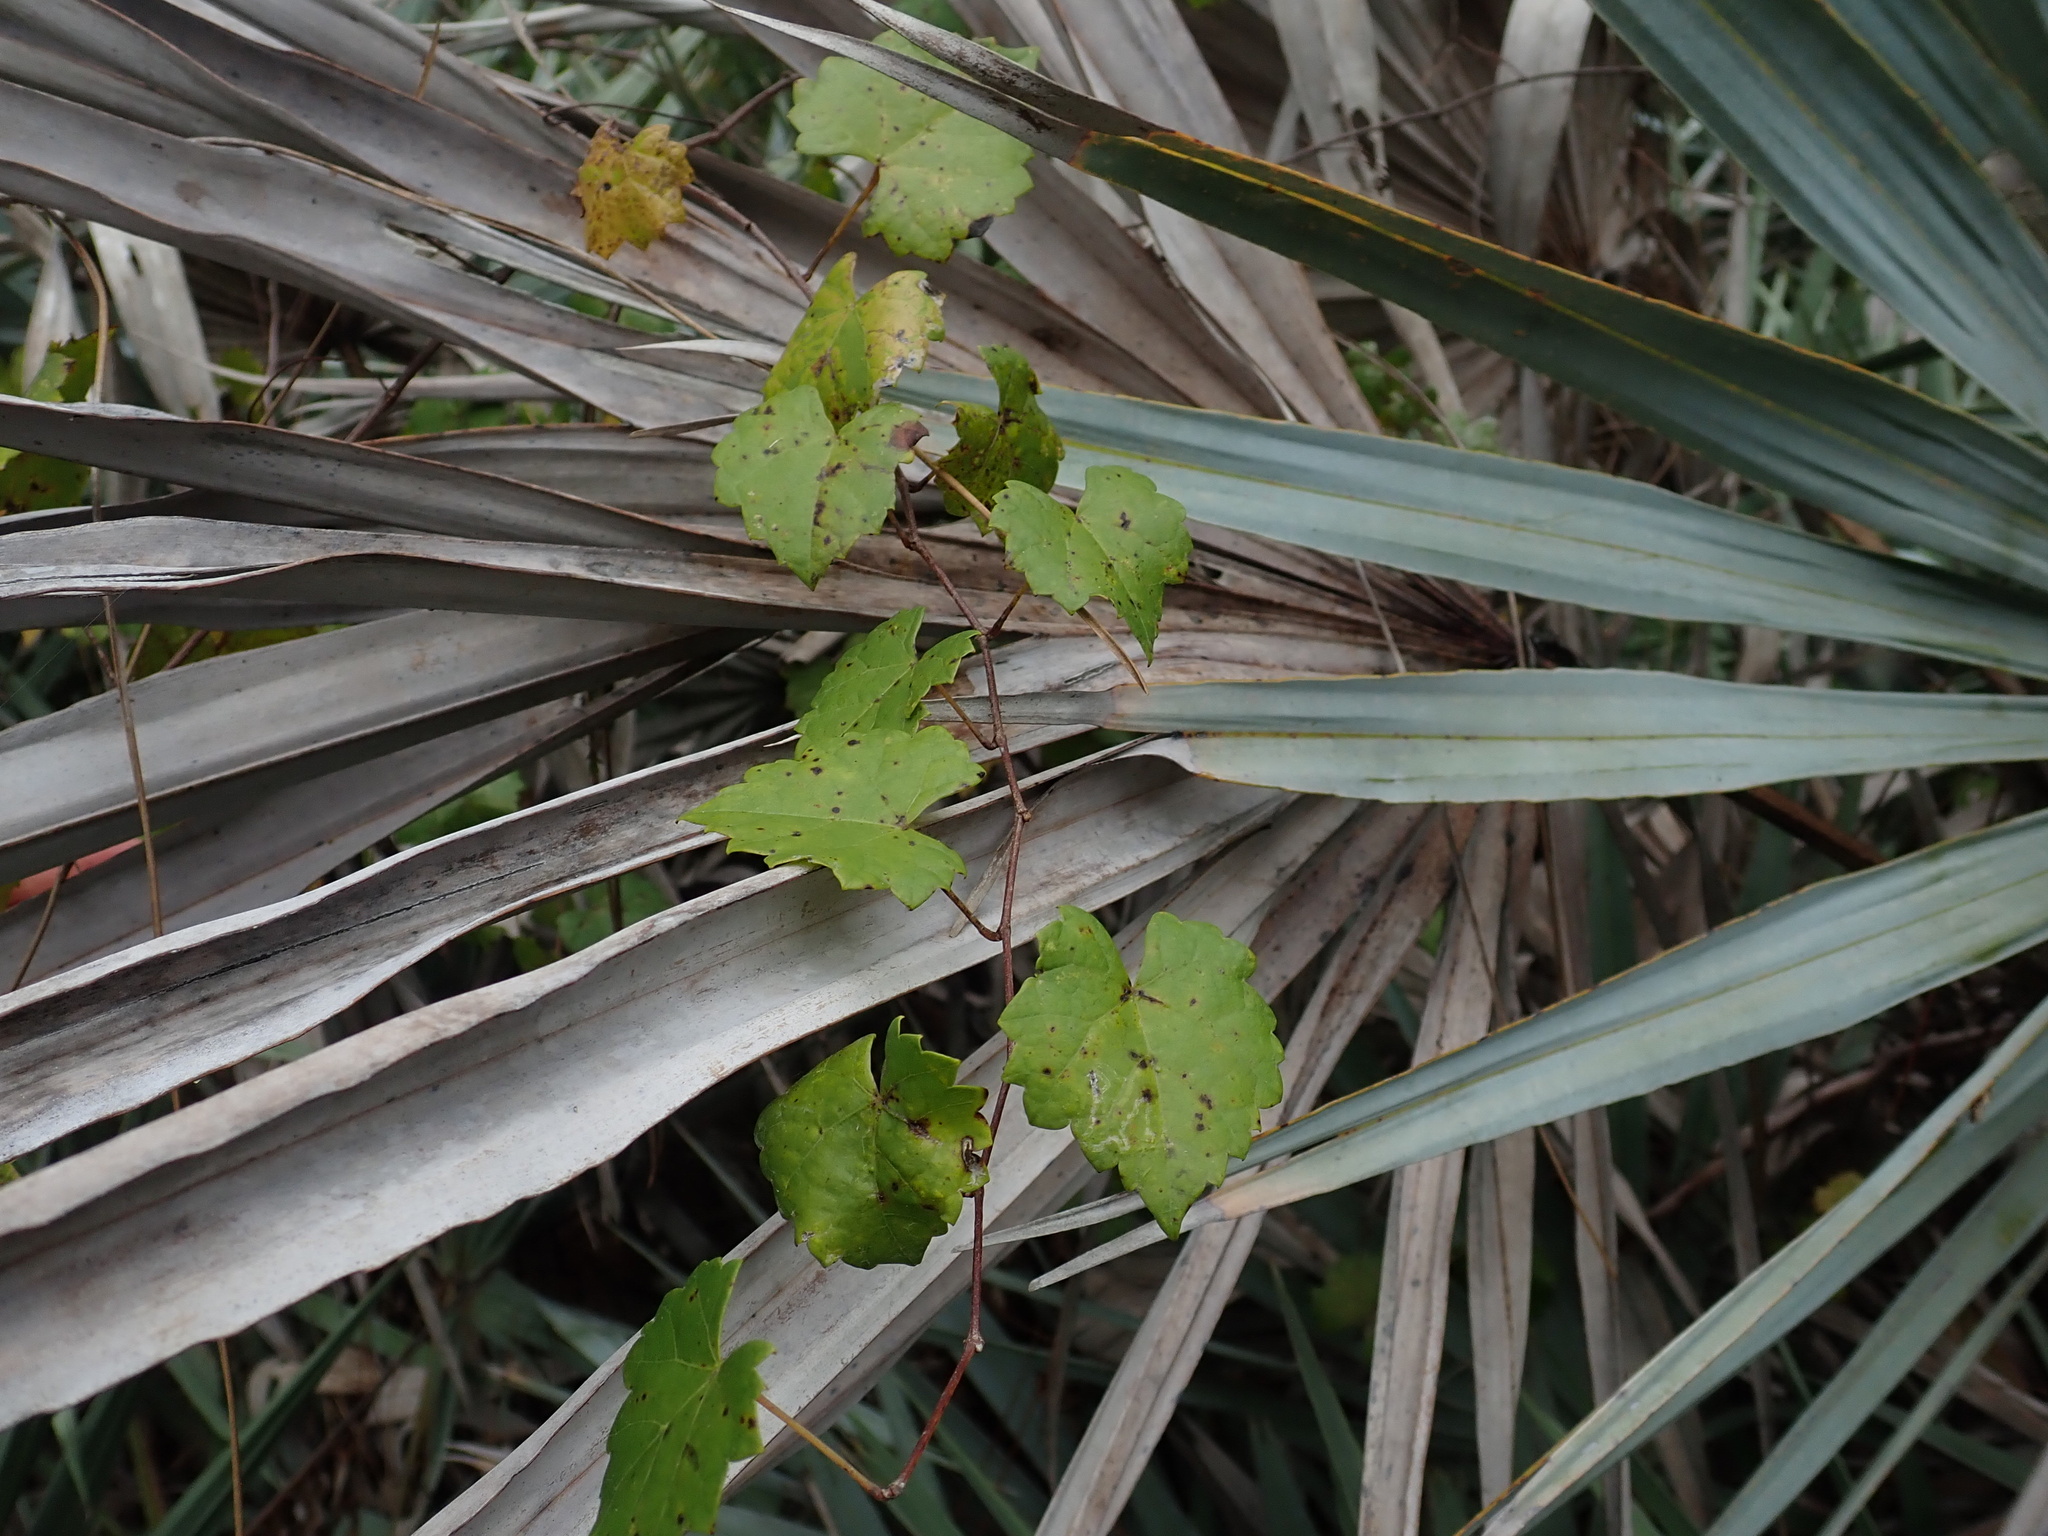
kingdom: Plantae
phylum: Tracheophyta
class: Magnoliopsida
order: Vitales
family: Vitaceae
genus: Vitis
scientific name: Vitis rotundifolia
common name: Muscadine grape
